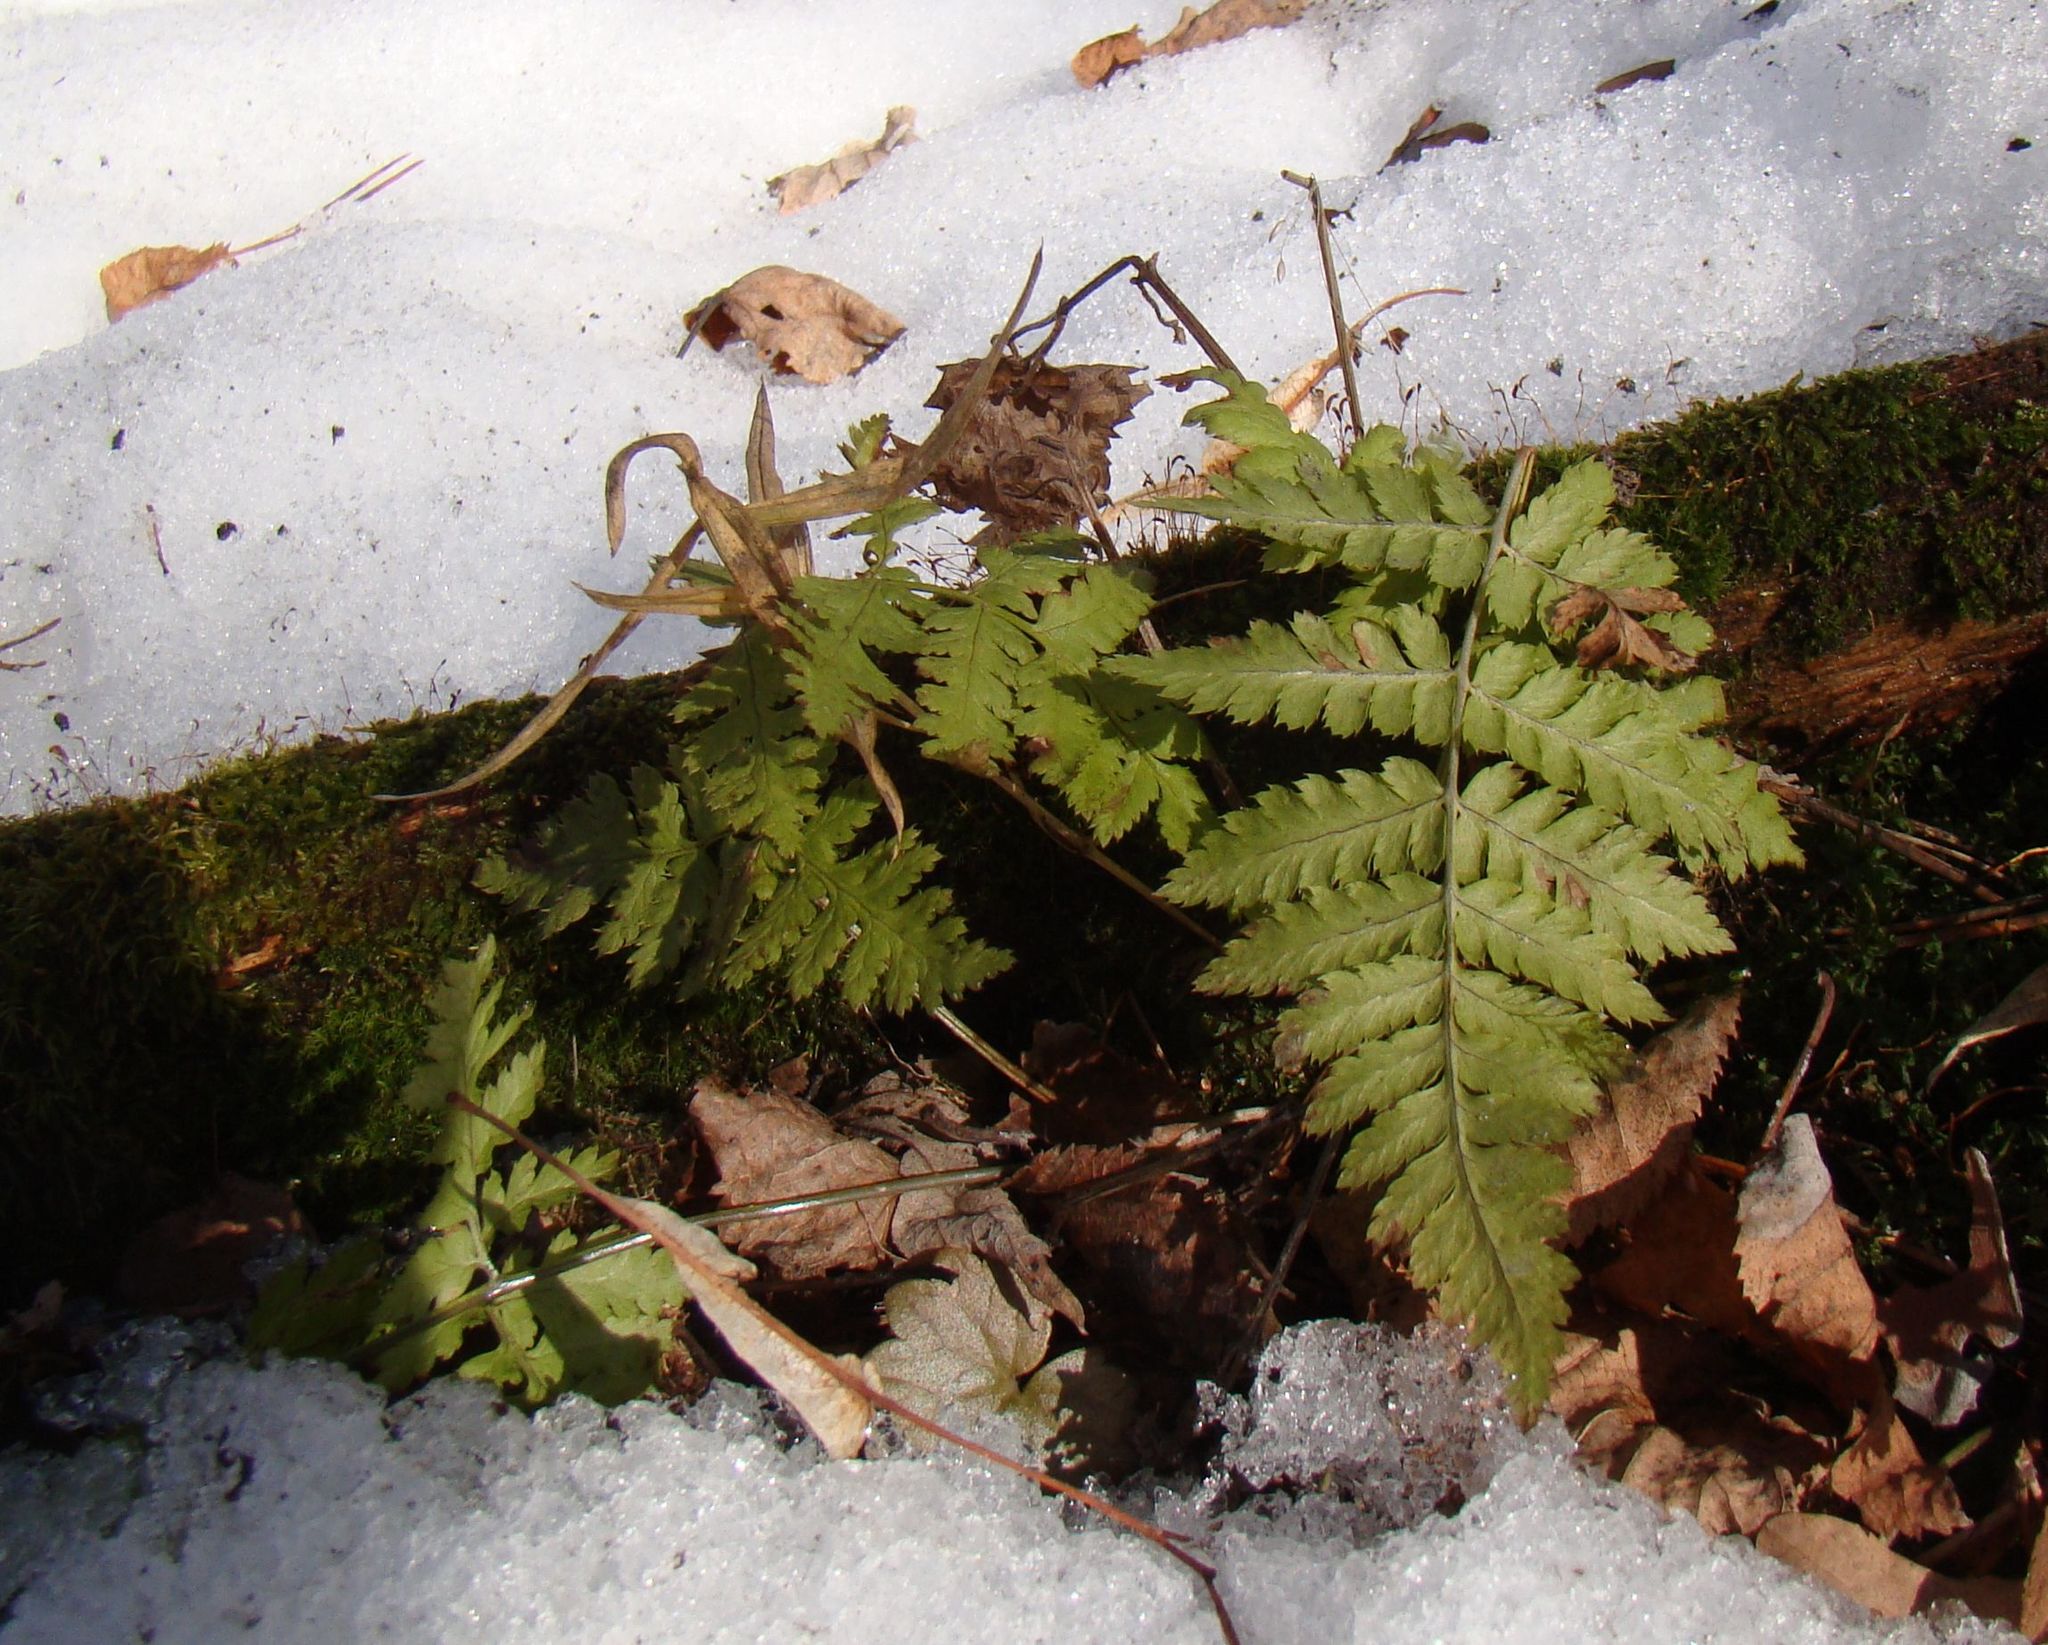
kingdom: Plantae
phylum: Tracheophyta
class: Polypodiopsida
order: Polypodiales
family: Dryopteridaceae
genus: Dryopteris
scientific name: Dryopteris carthusiana
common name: Narrow buckler-fern
